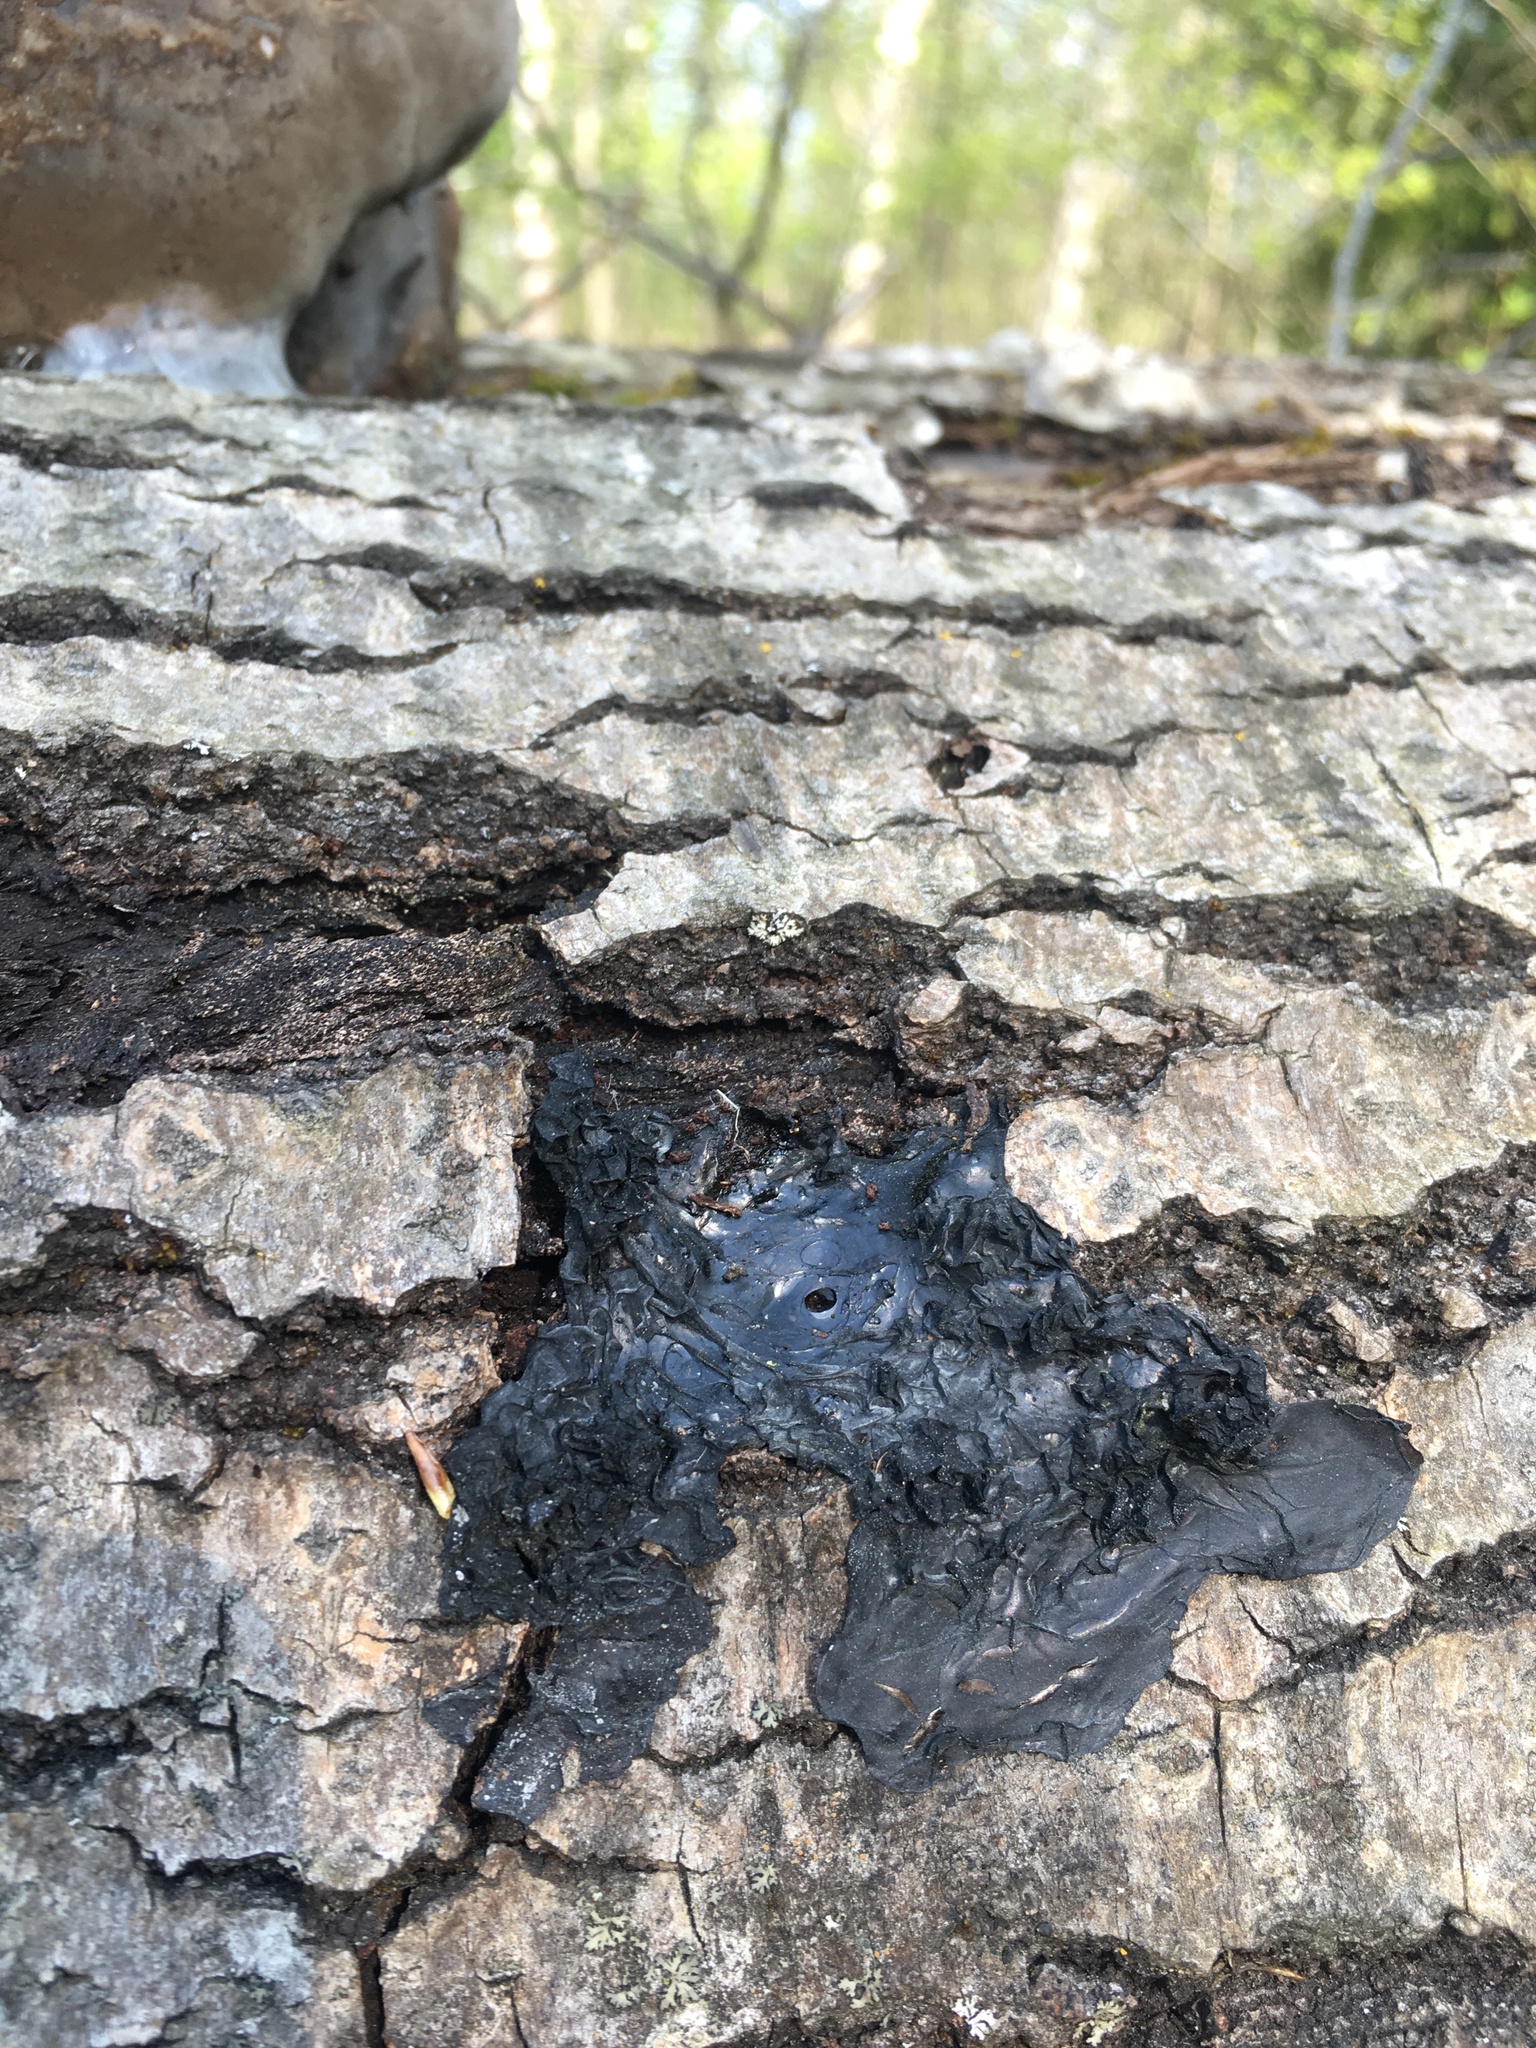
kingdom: Fungi
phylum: Basidiomycota
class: Agaricomycetes
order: Auriculariales
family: Auriculariaceae
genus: Exidia
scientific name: Exidia nigricans
